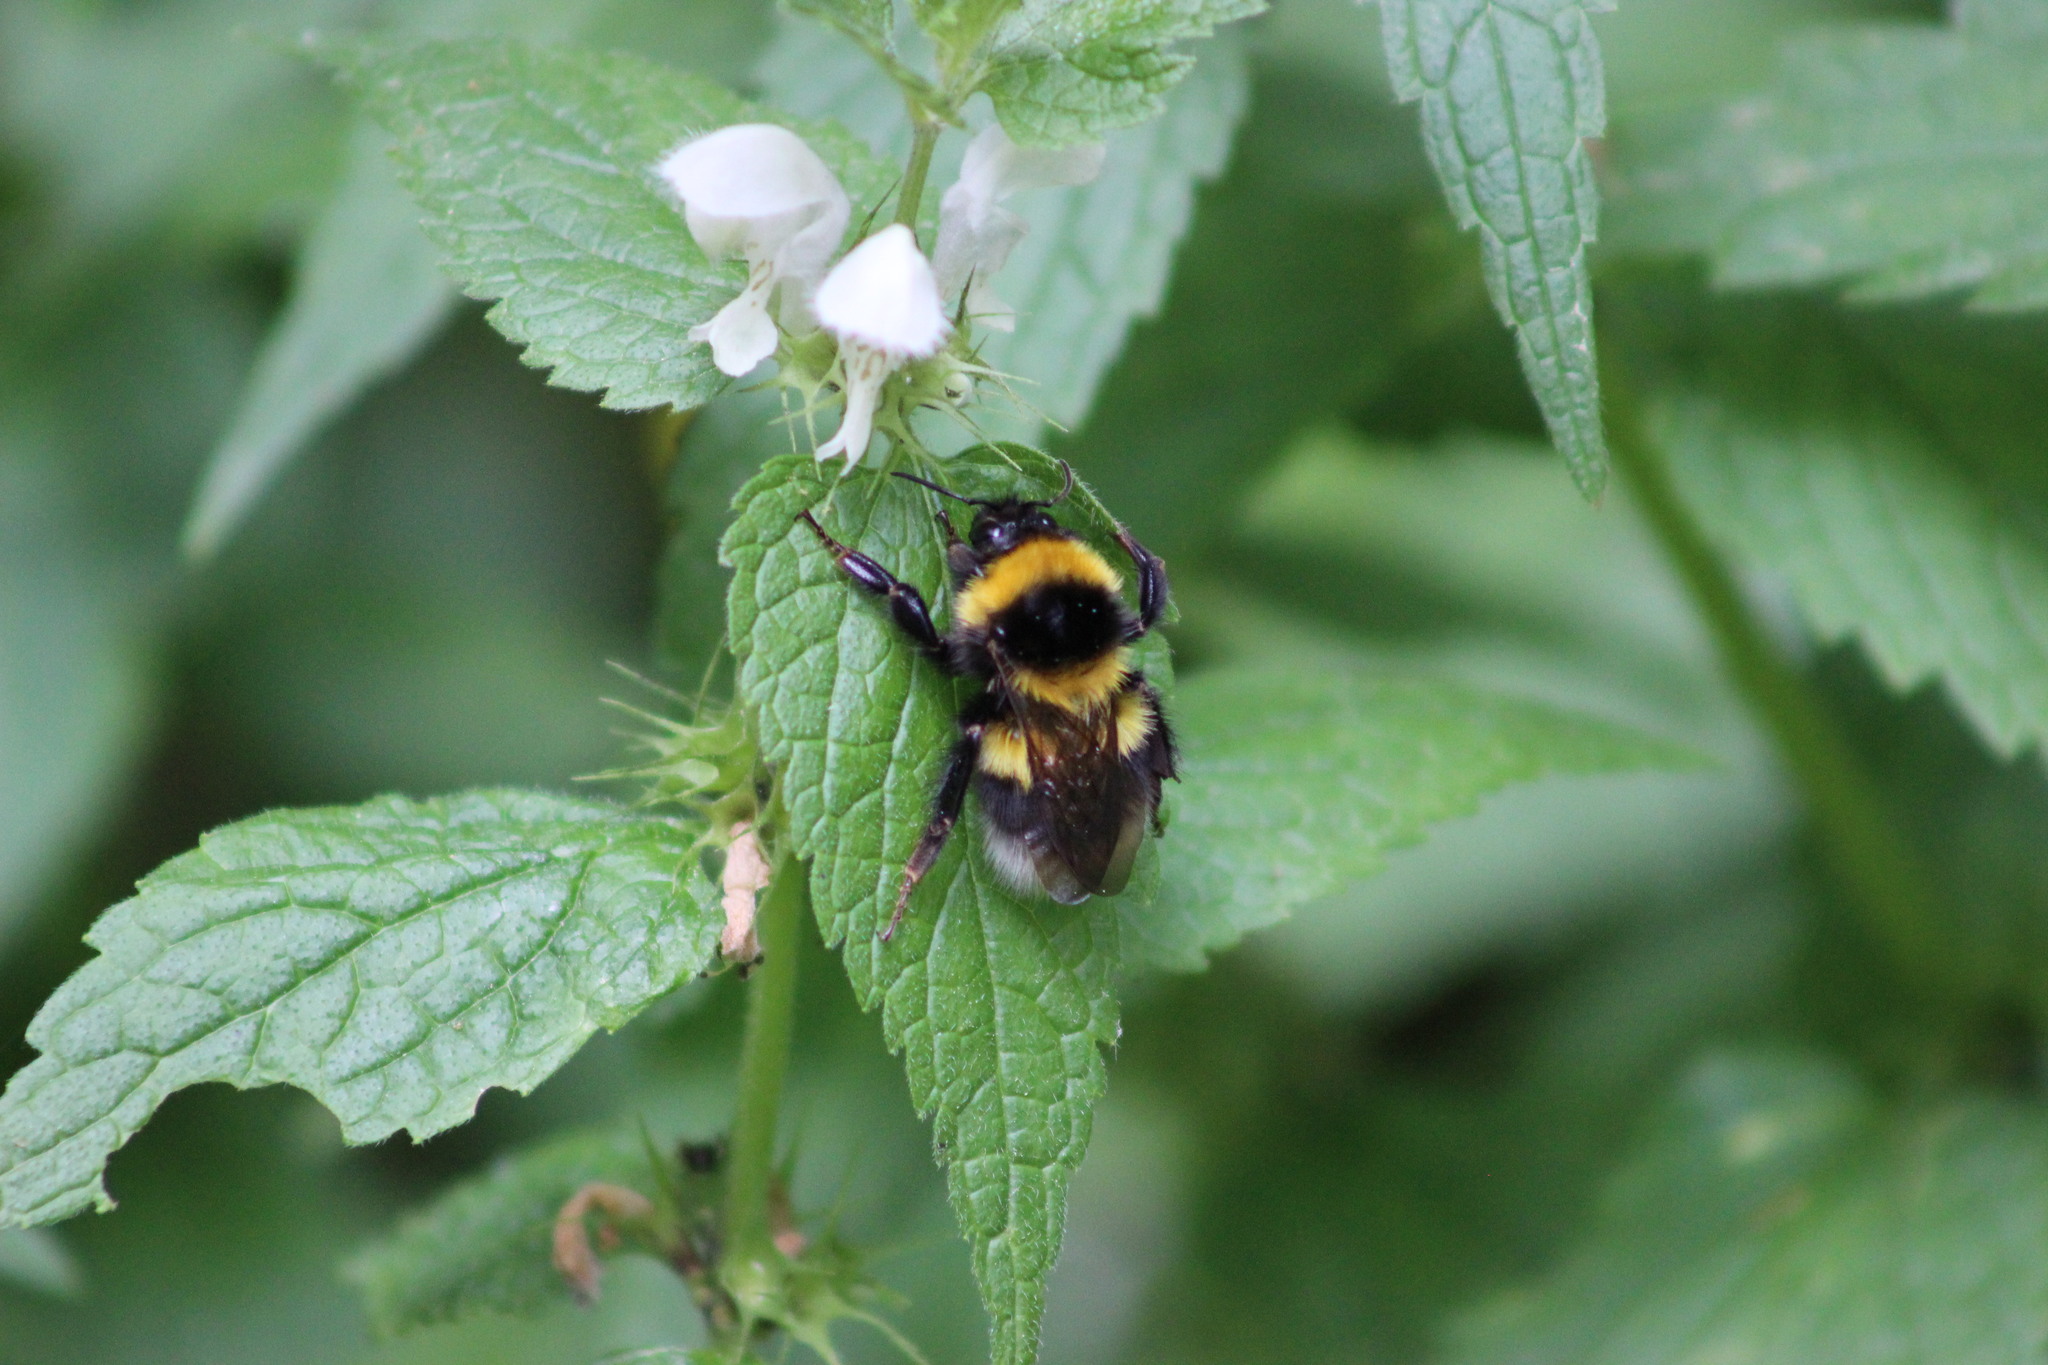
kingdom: Animalia
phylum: Arthropoda
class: Insecta
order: Hymenoptera
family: Apidae
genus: Bombus
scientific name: Bombus hortorum
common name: Garden bumblebee
